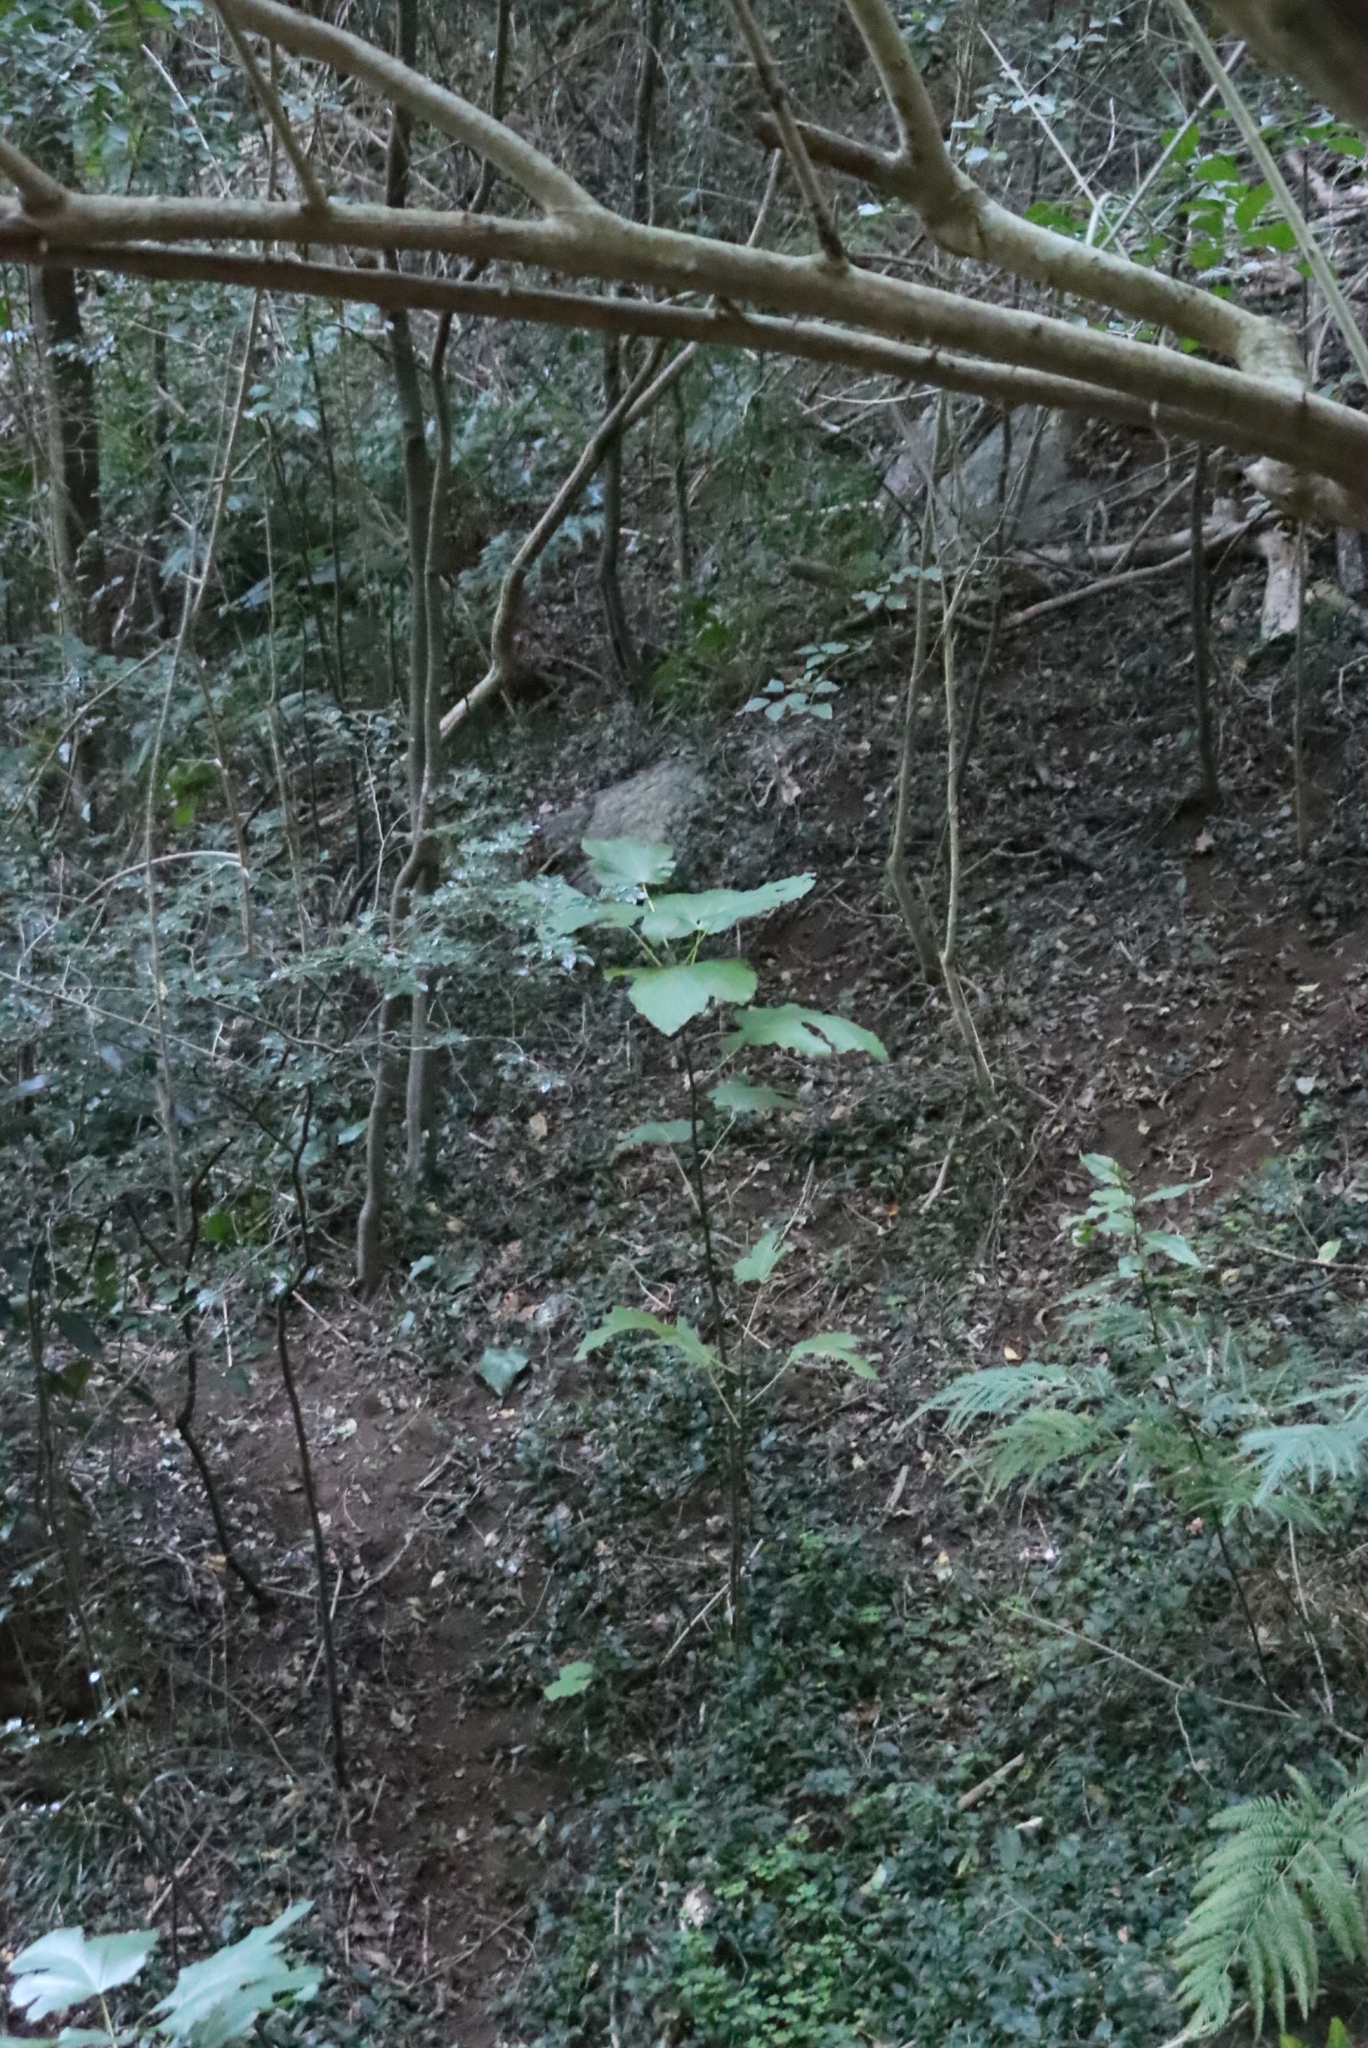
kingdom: Plantae
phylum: Tracheophyta
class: Magnoliopsida
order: Rosales
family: Moraceae
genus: Ficus
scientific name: Ficus carica
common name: Fig
